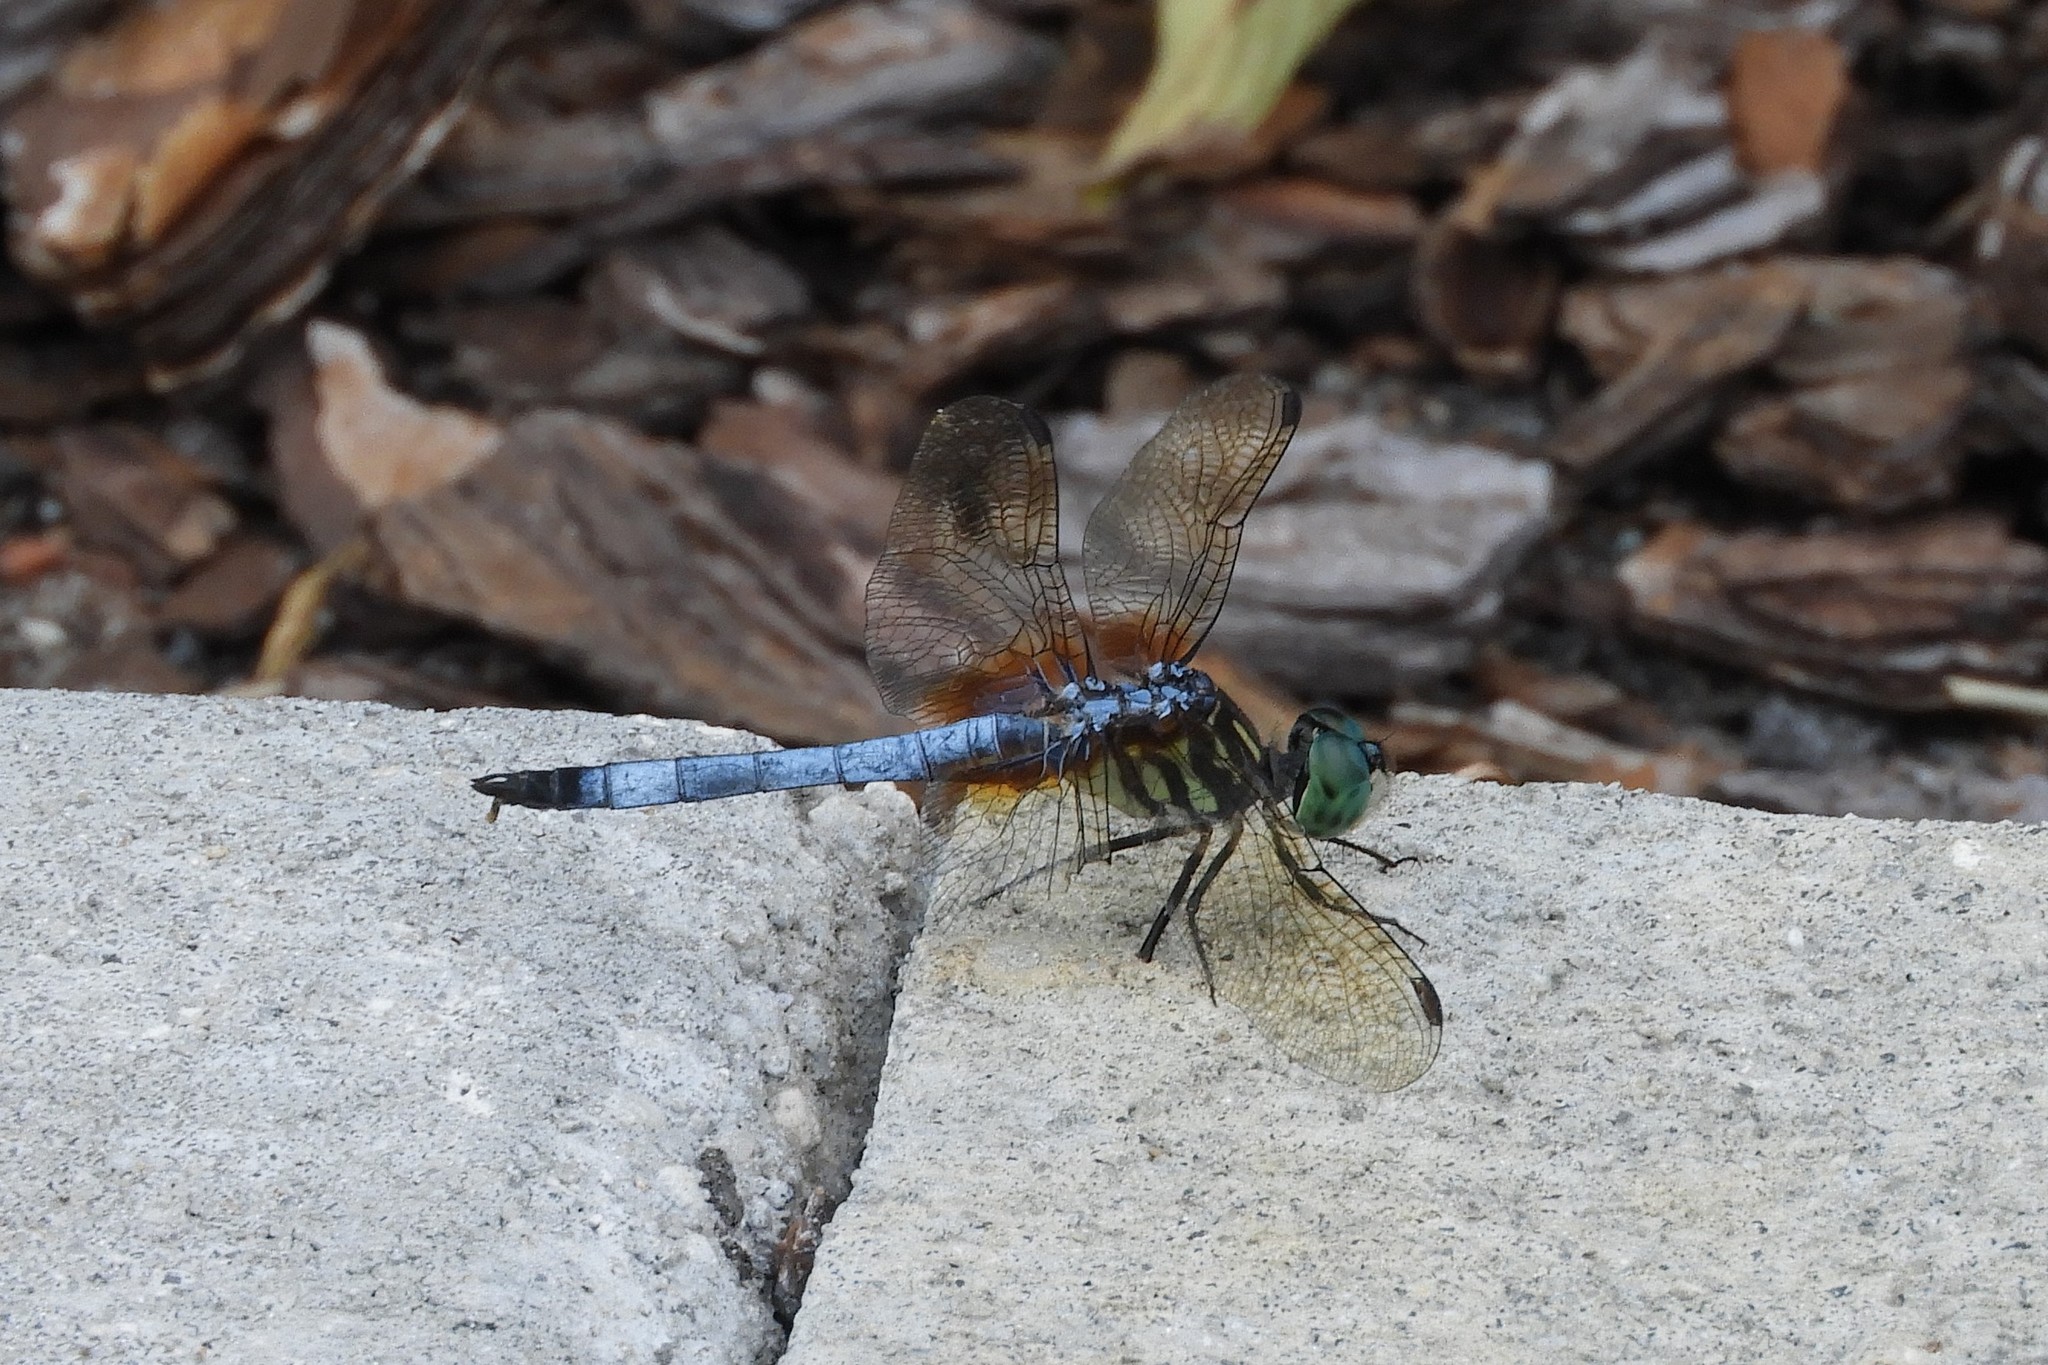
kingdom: Animalia
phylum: Arthropoda
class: Insecta
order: Odonata
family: Libellulidae
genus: Pachydiplax
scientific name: Pachydiplax longipennis
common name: Blue dasher
